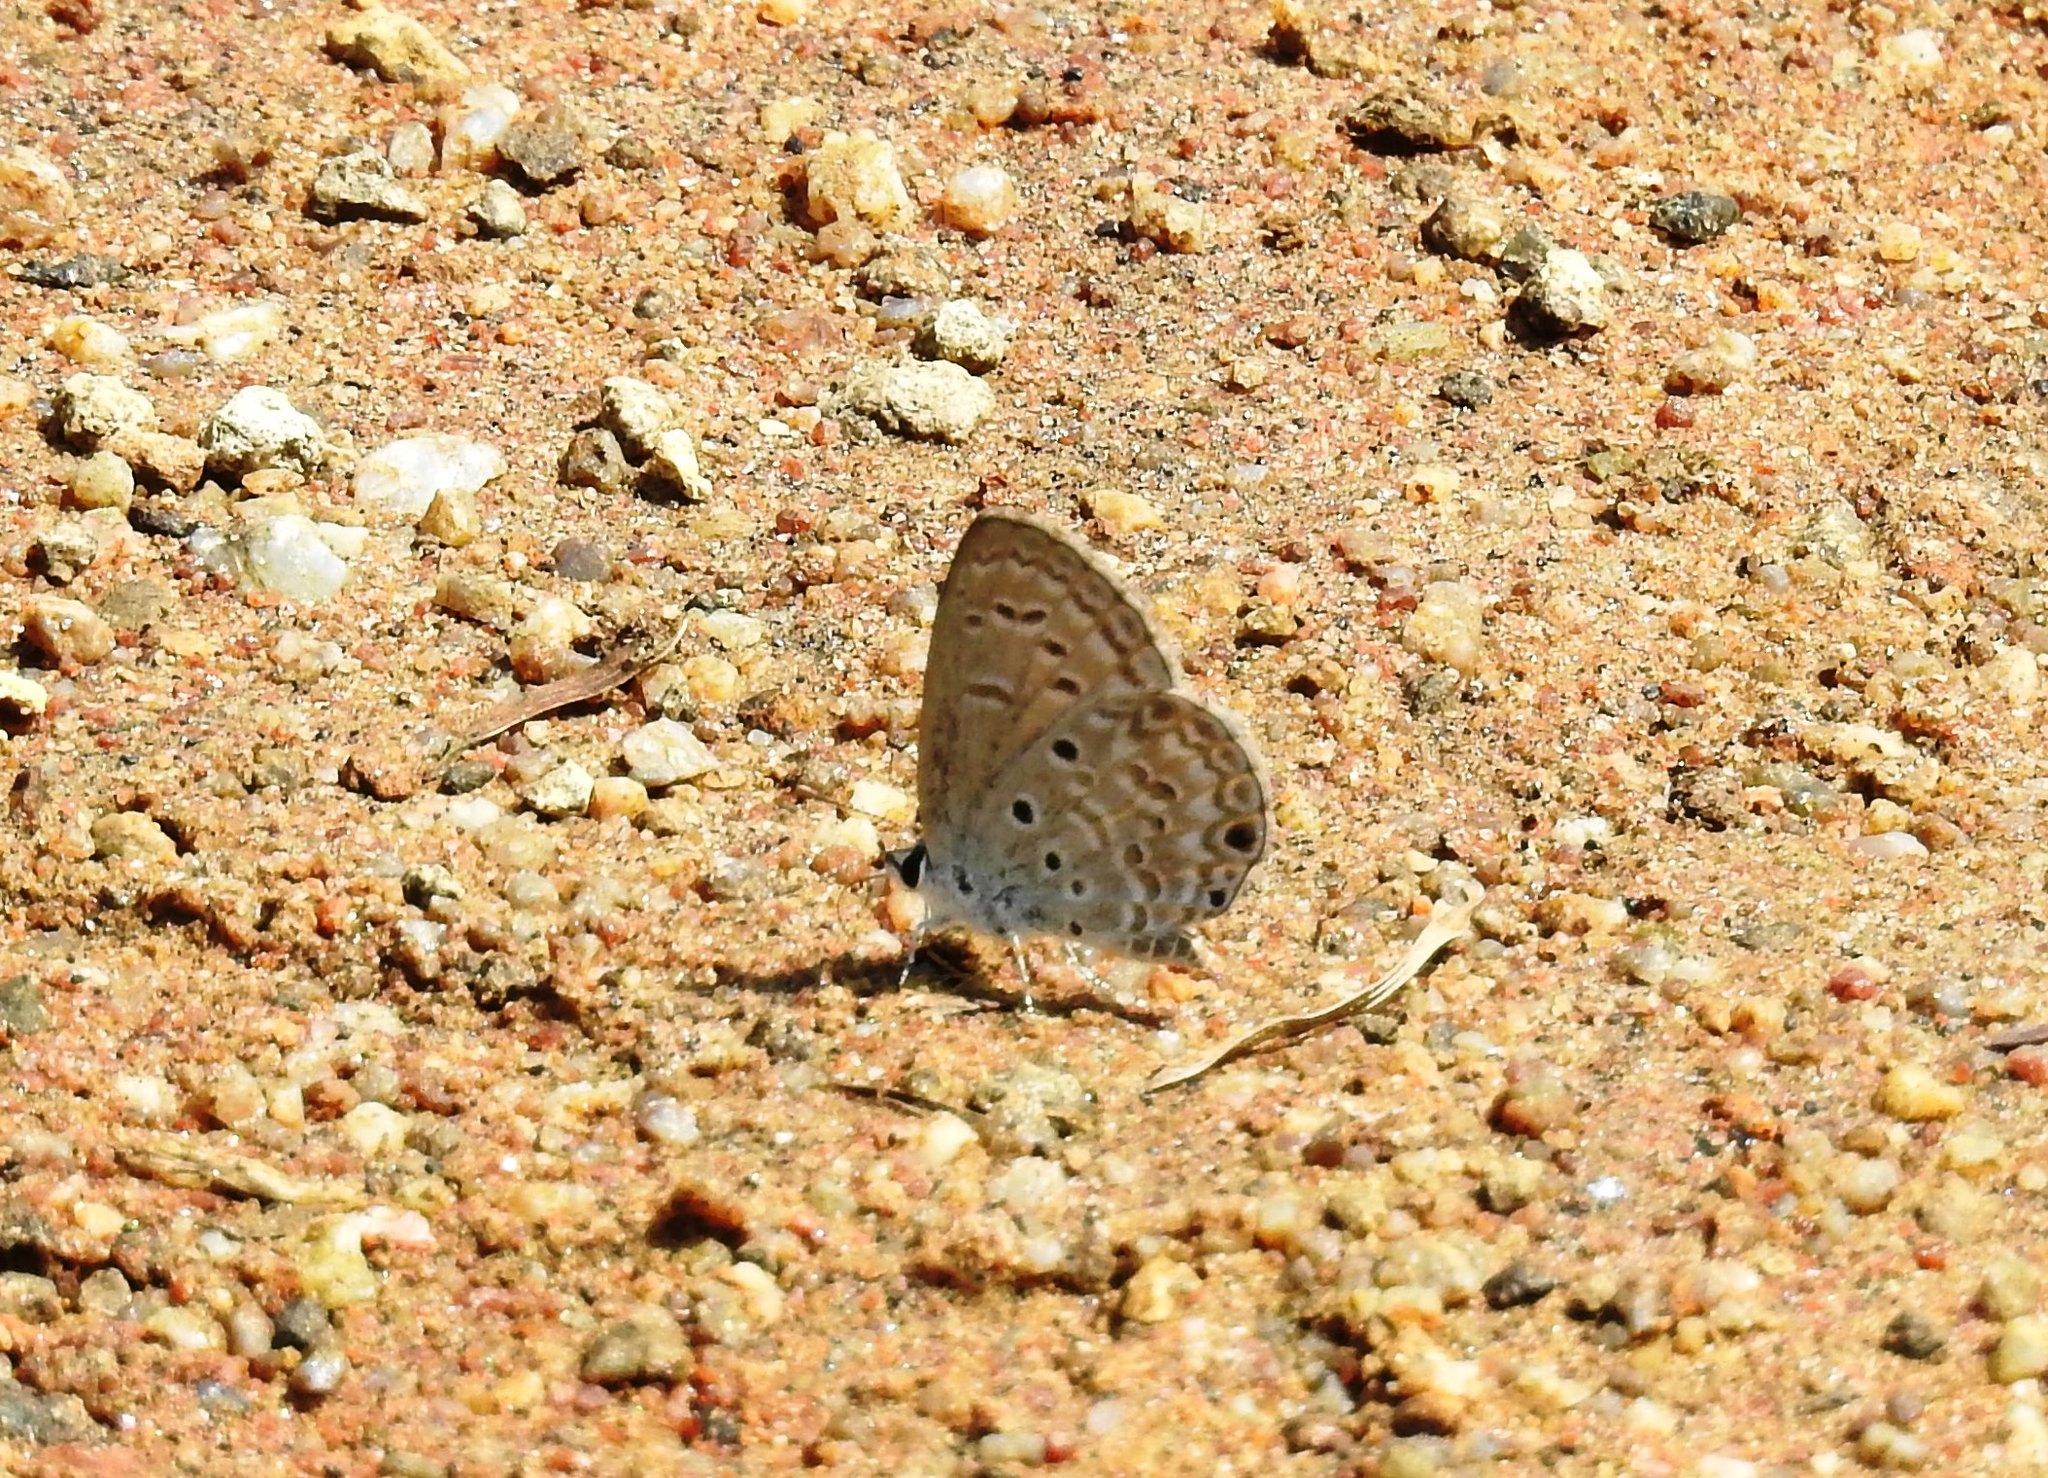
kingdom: Animalia
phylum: Arthropoda
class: Insecta
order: Lepidoptera
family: Lycaenidae
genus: Chilades
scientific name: Chilades laius
